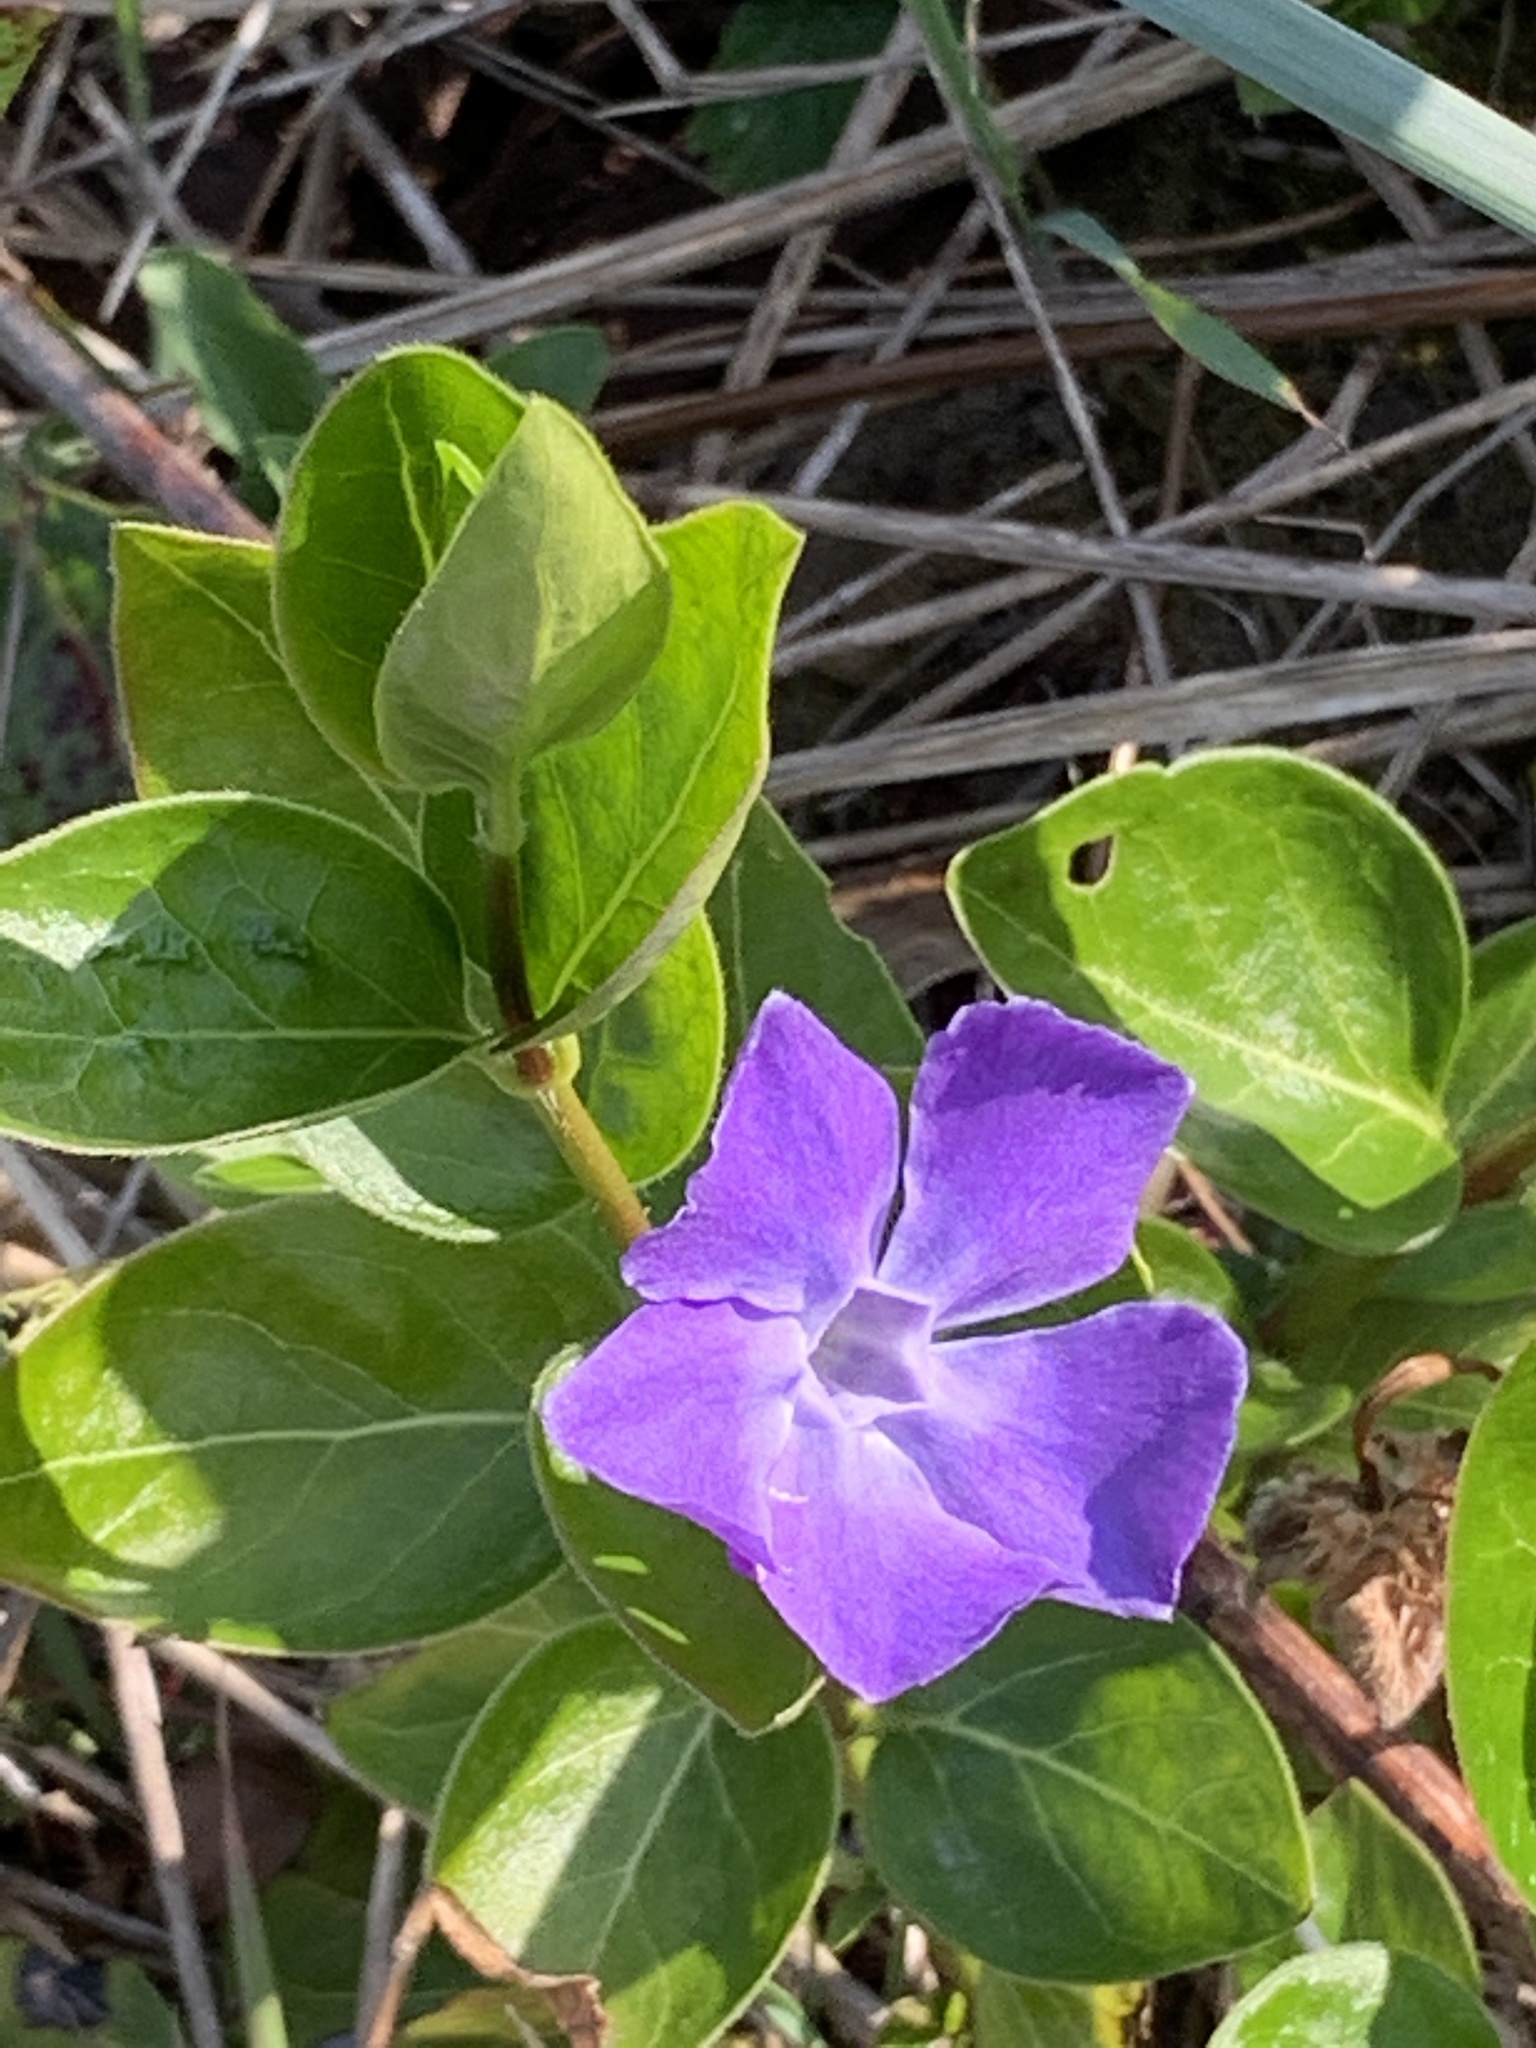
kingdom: Plantae
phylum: Tracheophyta
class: Magnoliopsida
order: Gentianales
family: Apocynaceae
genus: Vinca
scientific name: Vinca major
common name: Greater periwinkle
